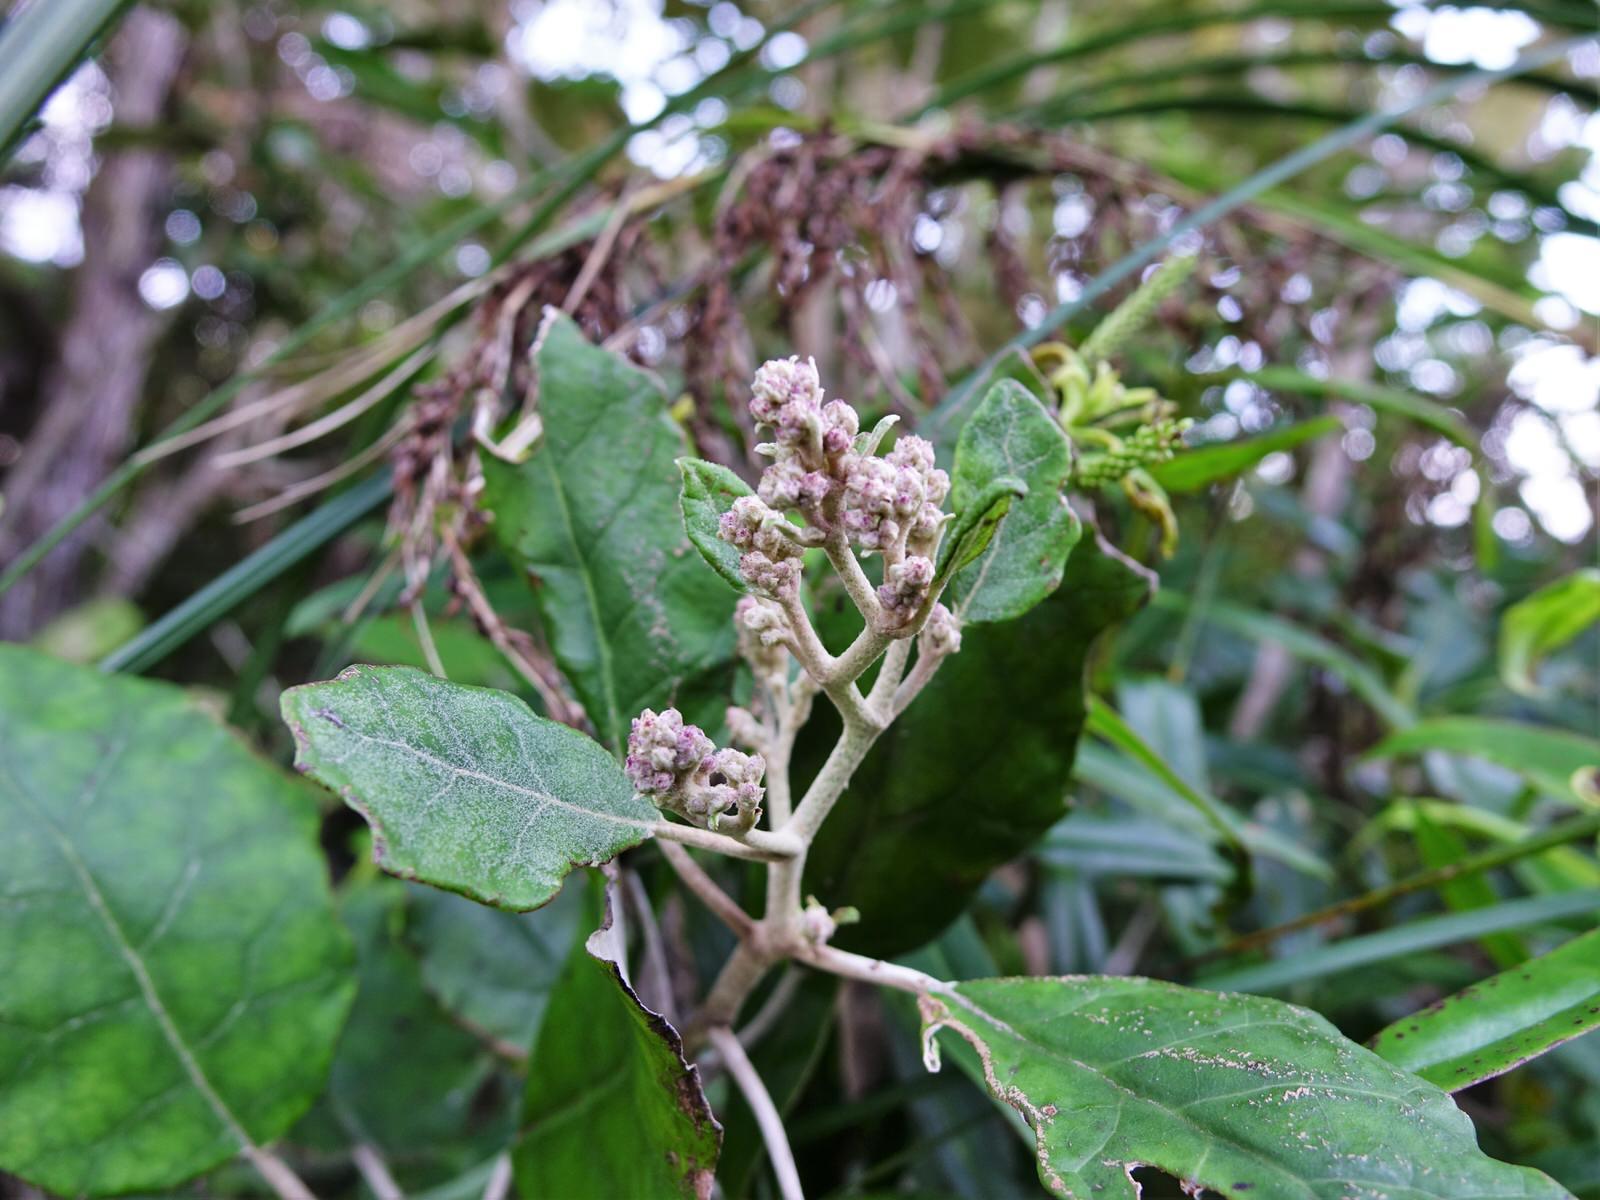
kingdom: Plantae
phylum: Tracheophyta
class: Magnoliopsida
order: Asterales
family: Asteraceae
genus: Brachyglottis
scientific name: Brachyglottis repanda
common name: Hedge ragwort
